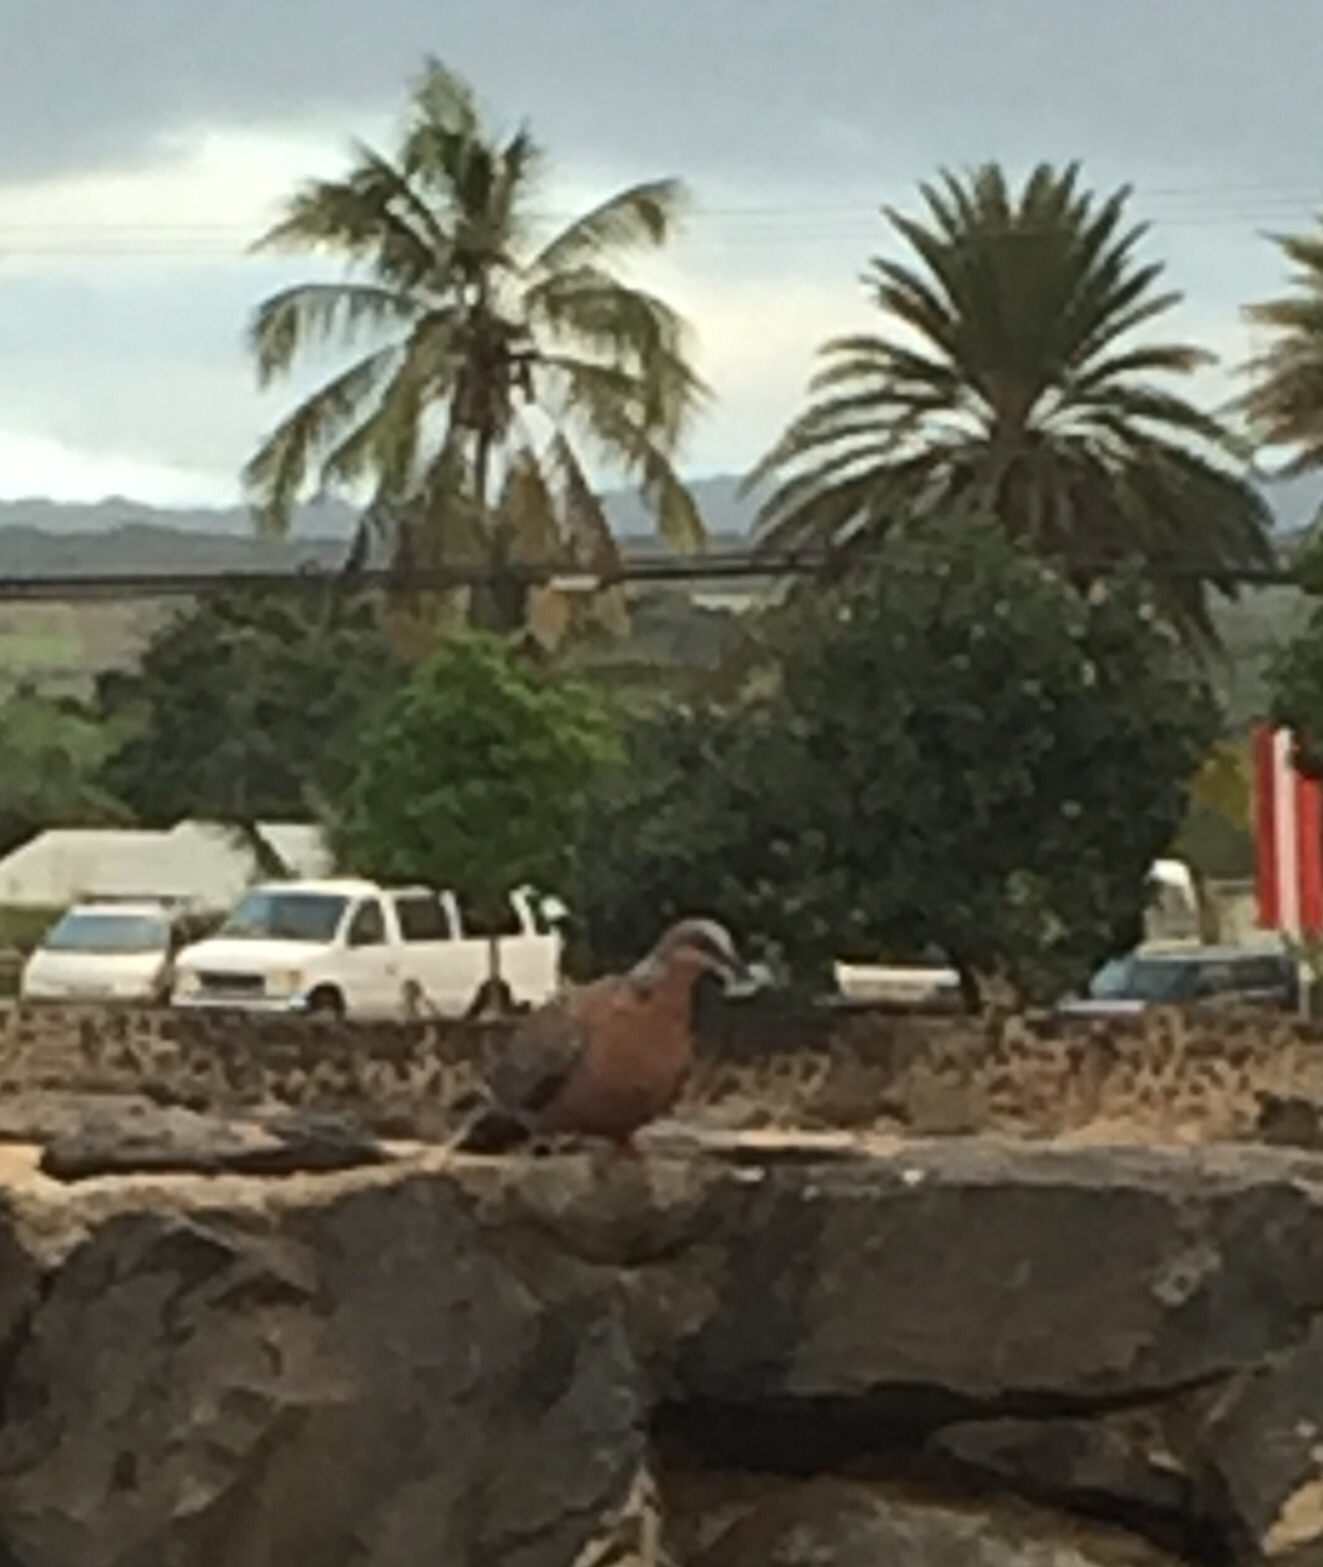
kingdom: Animalia
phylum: Chordata
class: Aves
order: Columbiformes
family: Columbidae
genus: Spilopelia
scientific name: Spilopelia chinensis
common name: Spotted dove
